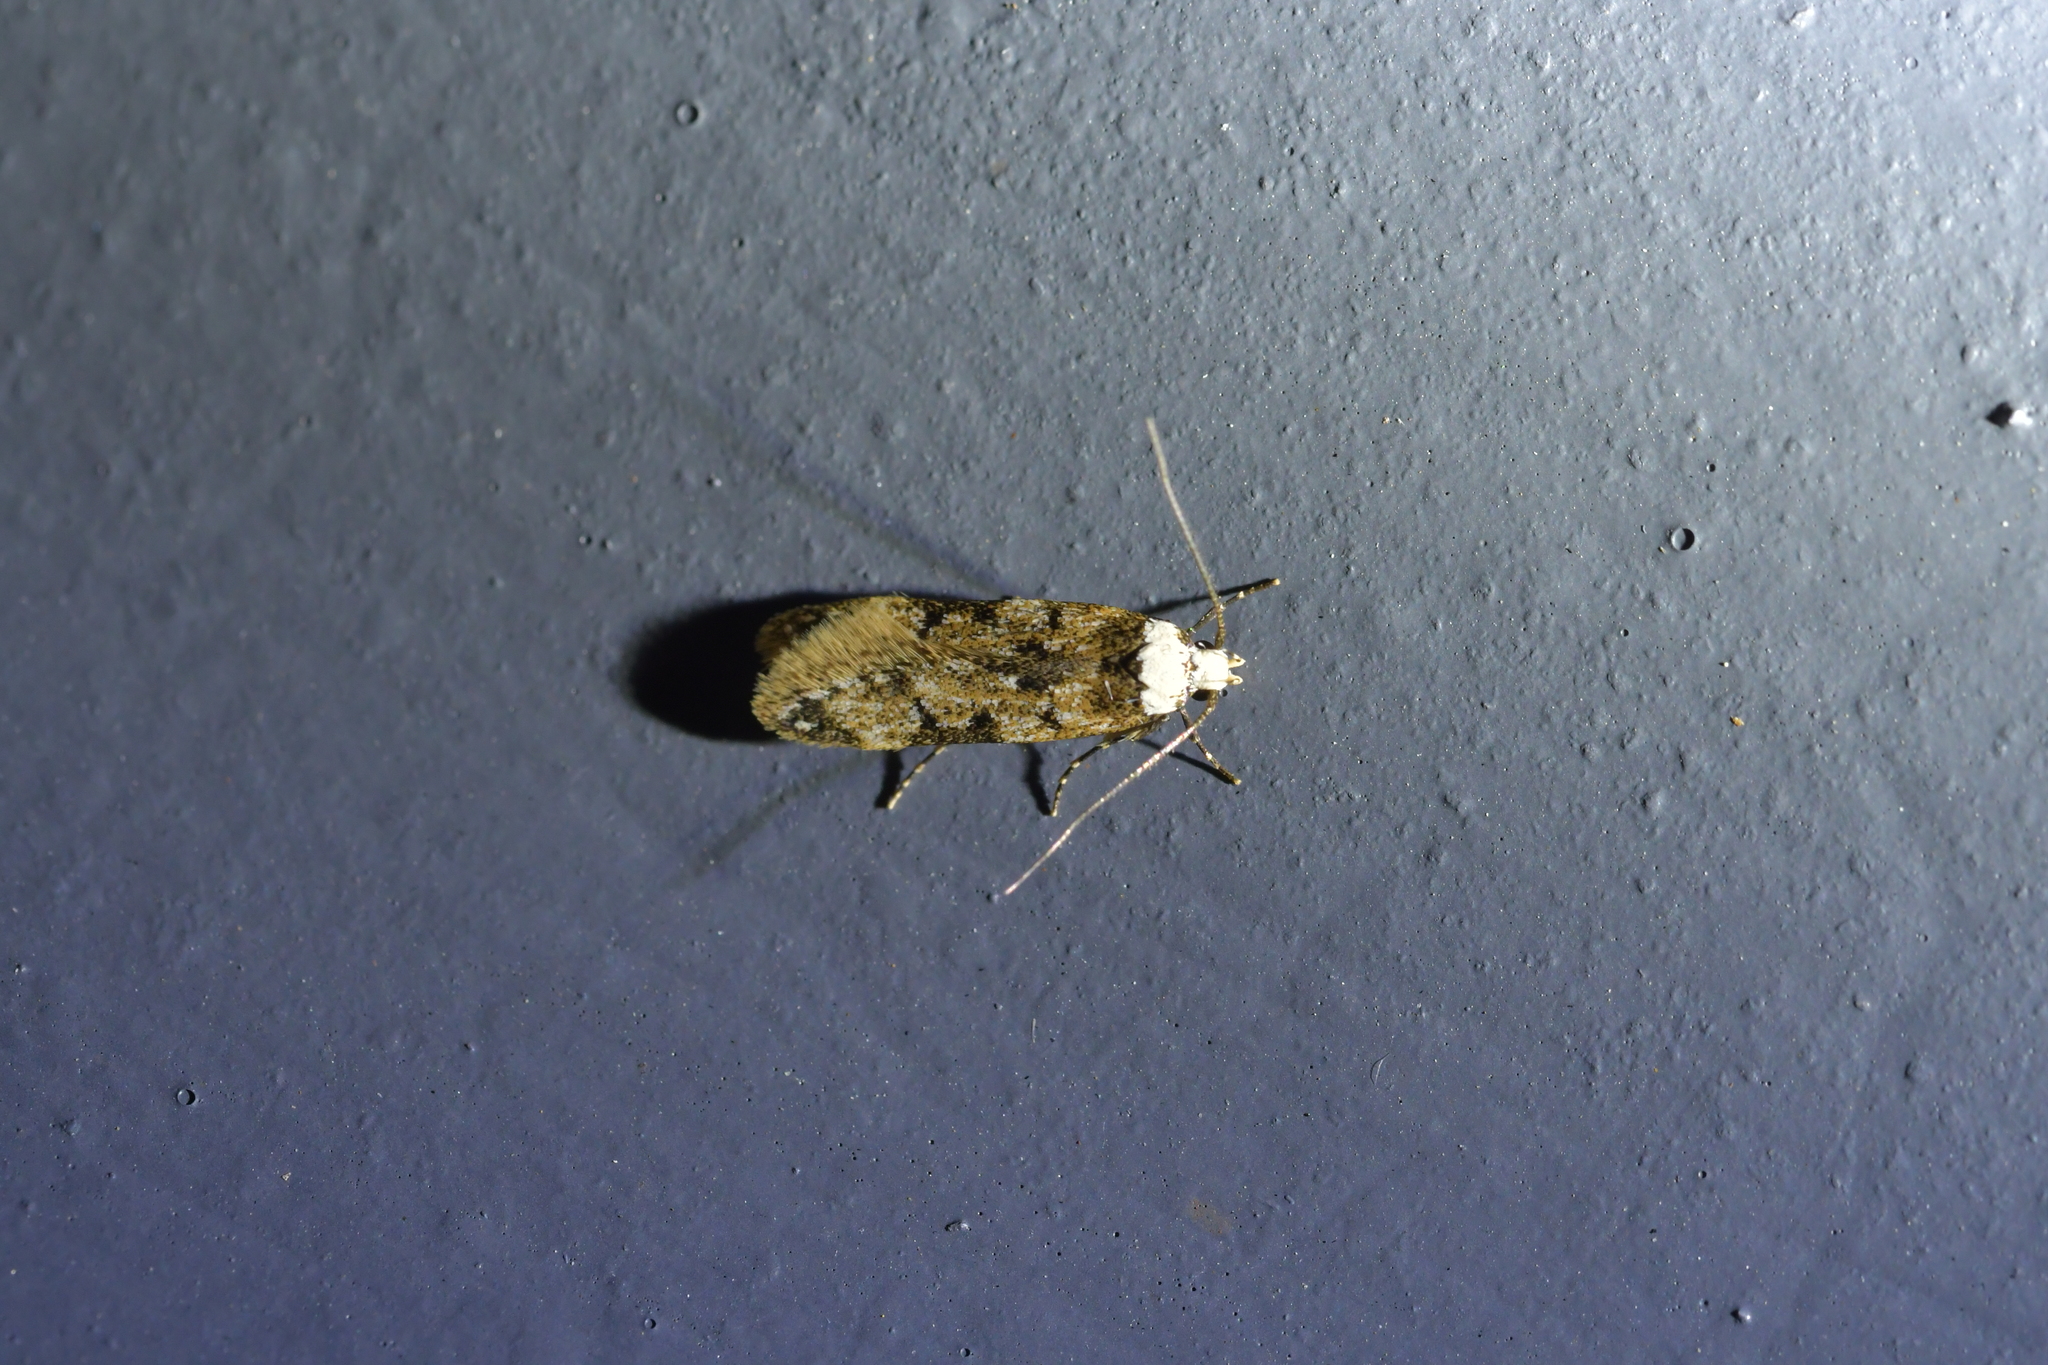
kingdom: Animalia
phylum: Arthropoda
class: Insecta
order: Lepidoptera
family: Oecophoridae
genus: Endrosis
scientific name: Endrosis sarcitrella
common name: White-shouldered house moth
